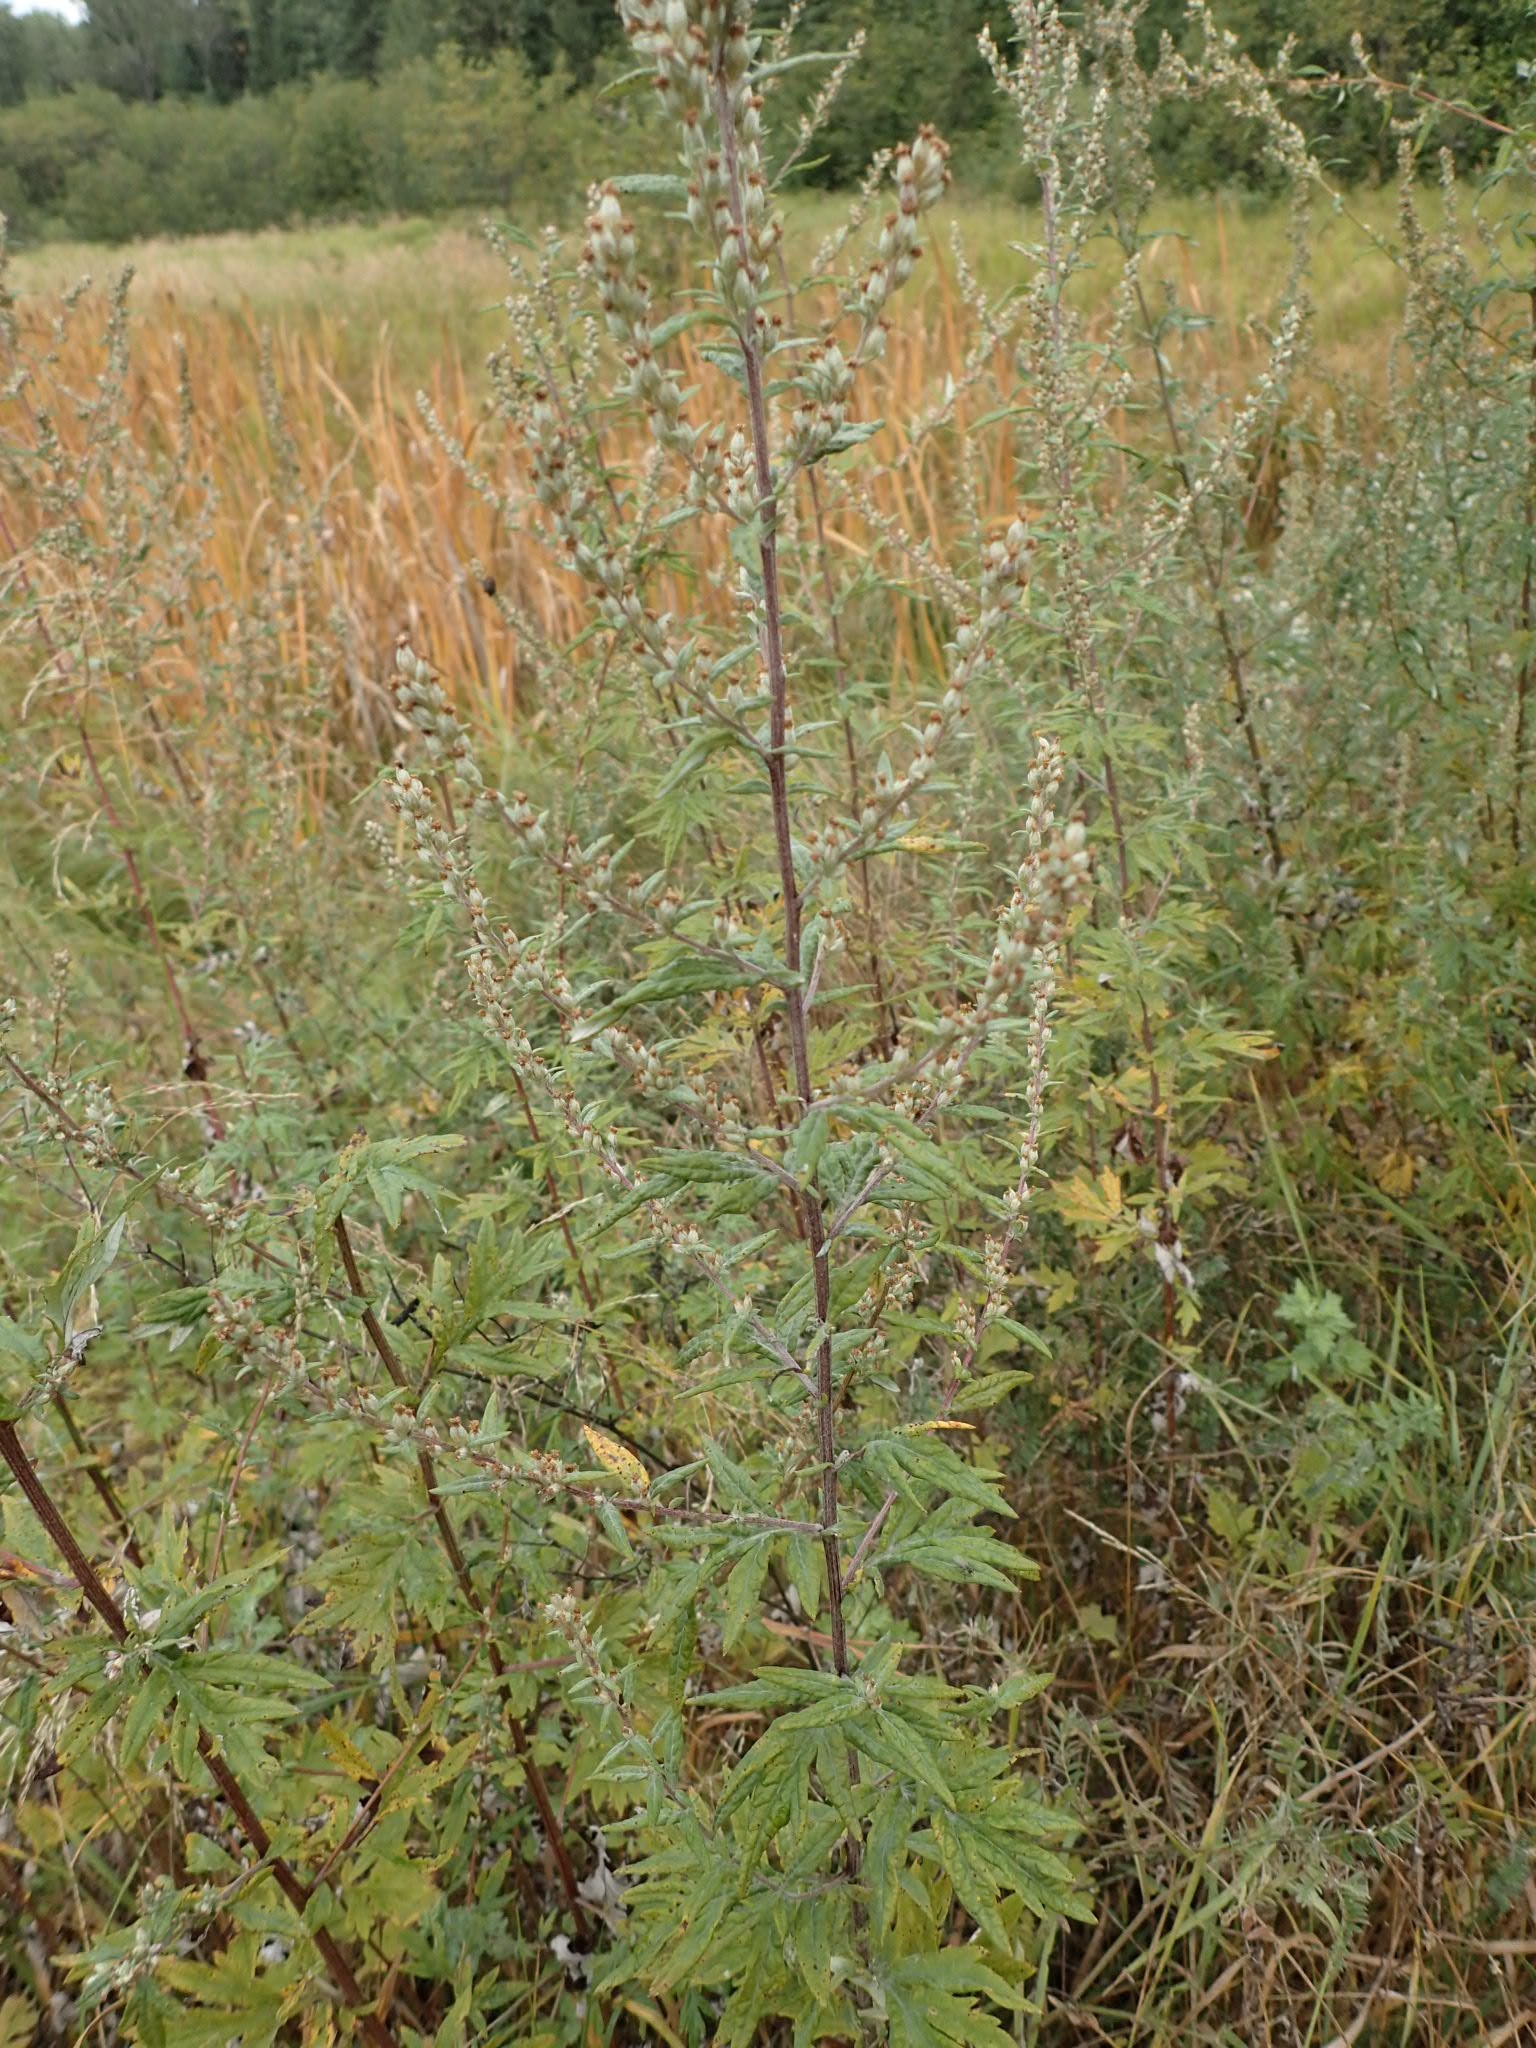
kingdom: Plantae
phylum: Tracheophyta
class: Magnoliopsida
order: Asterales
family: Asteraceae
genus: Artemisia
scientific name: Artemisia vulgaris
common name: Mugwort
